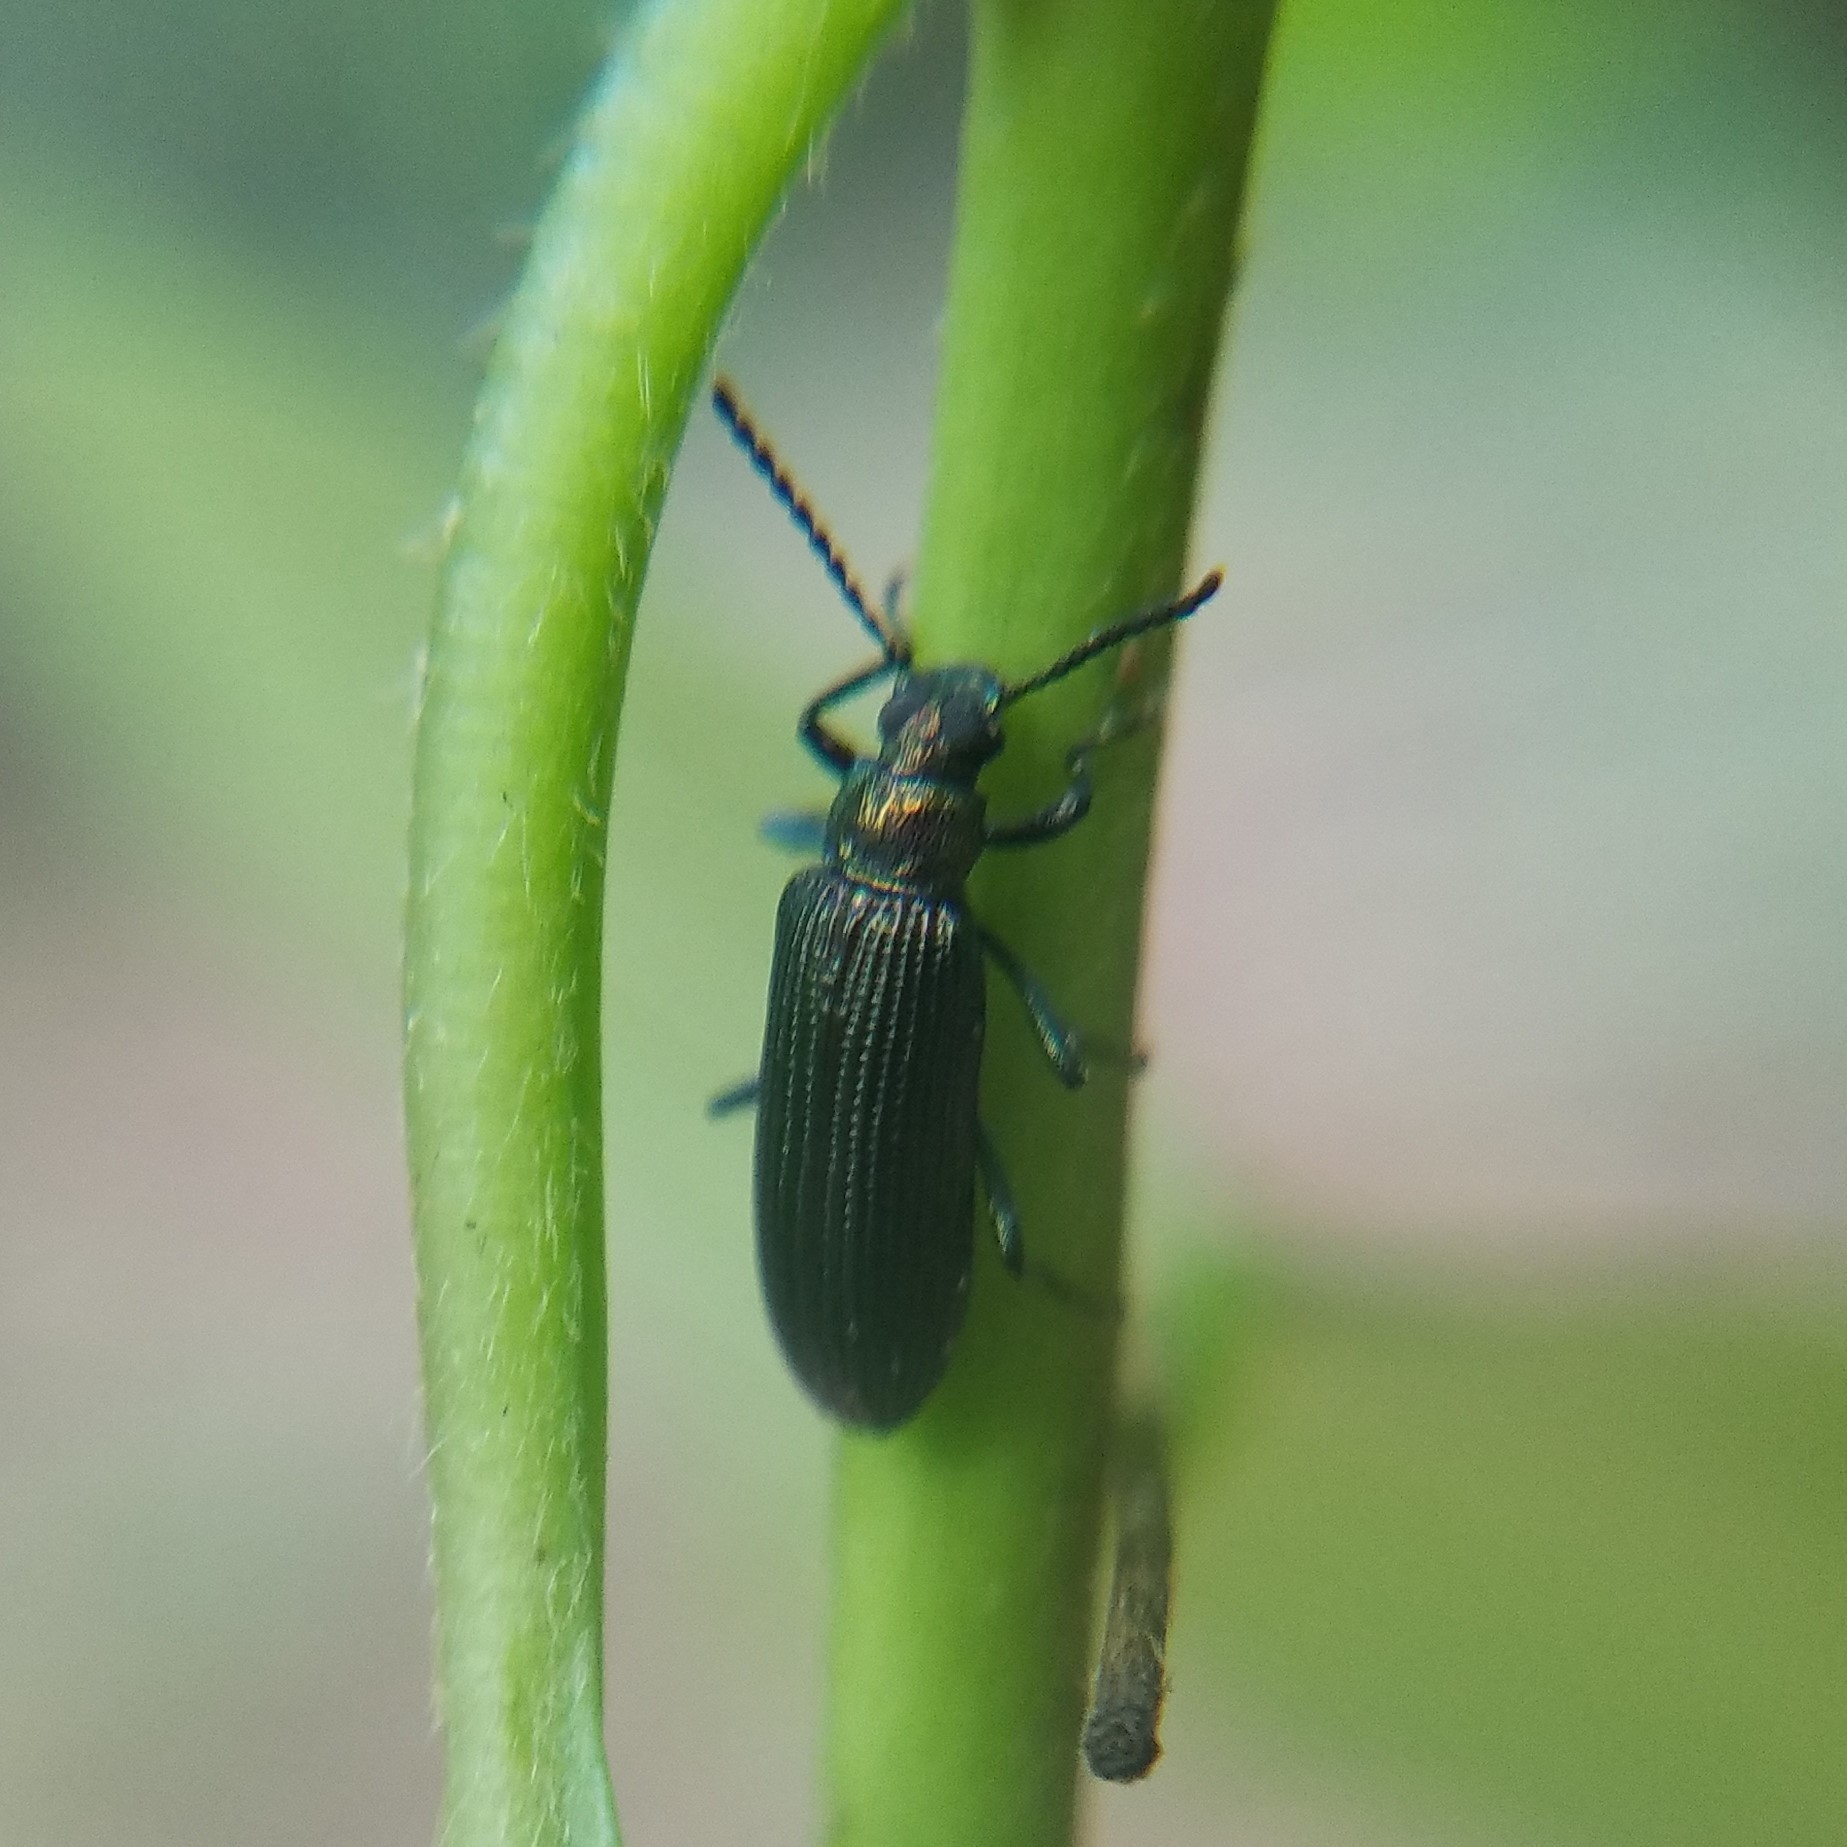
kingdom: Animalia
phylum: Arthropoda
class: Insecta
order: Coleoptera
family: Tenebrionidae
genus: Strongylium
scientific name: Strongylium
